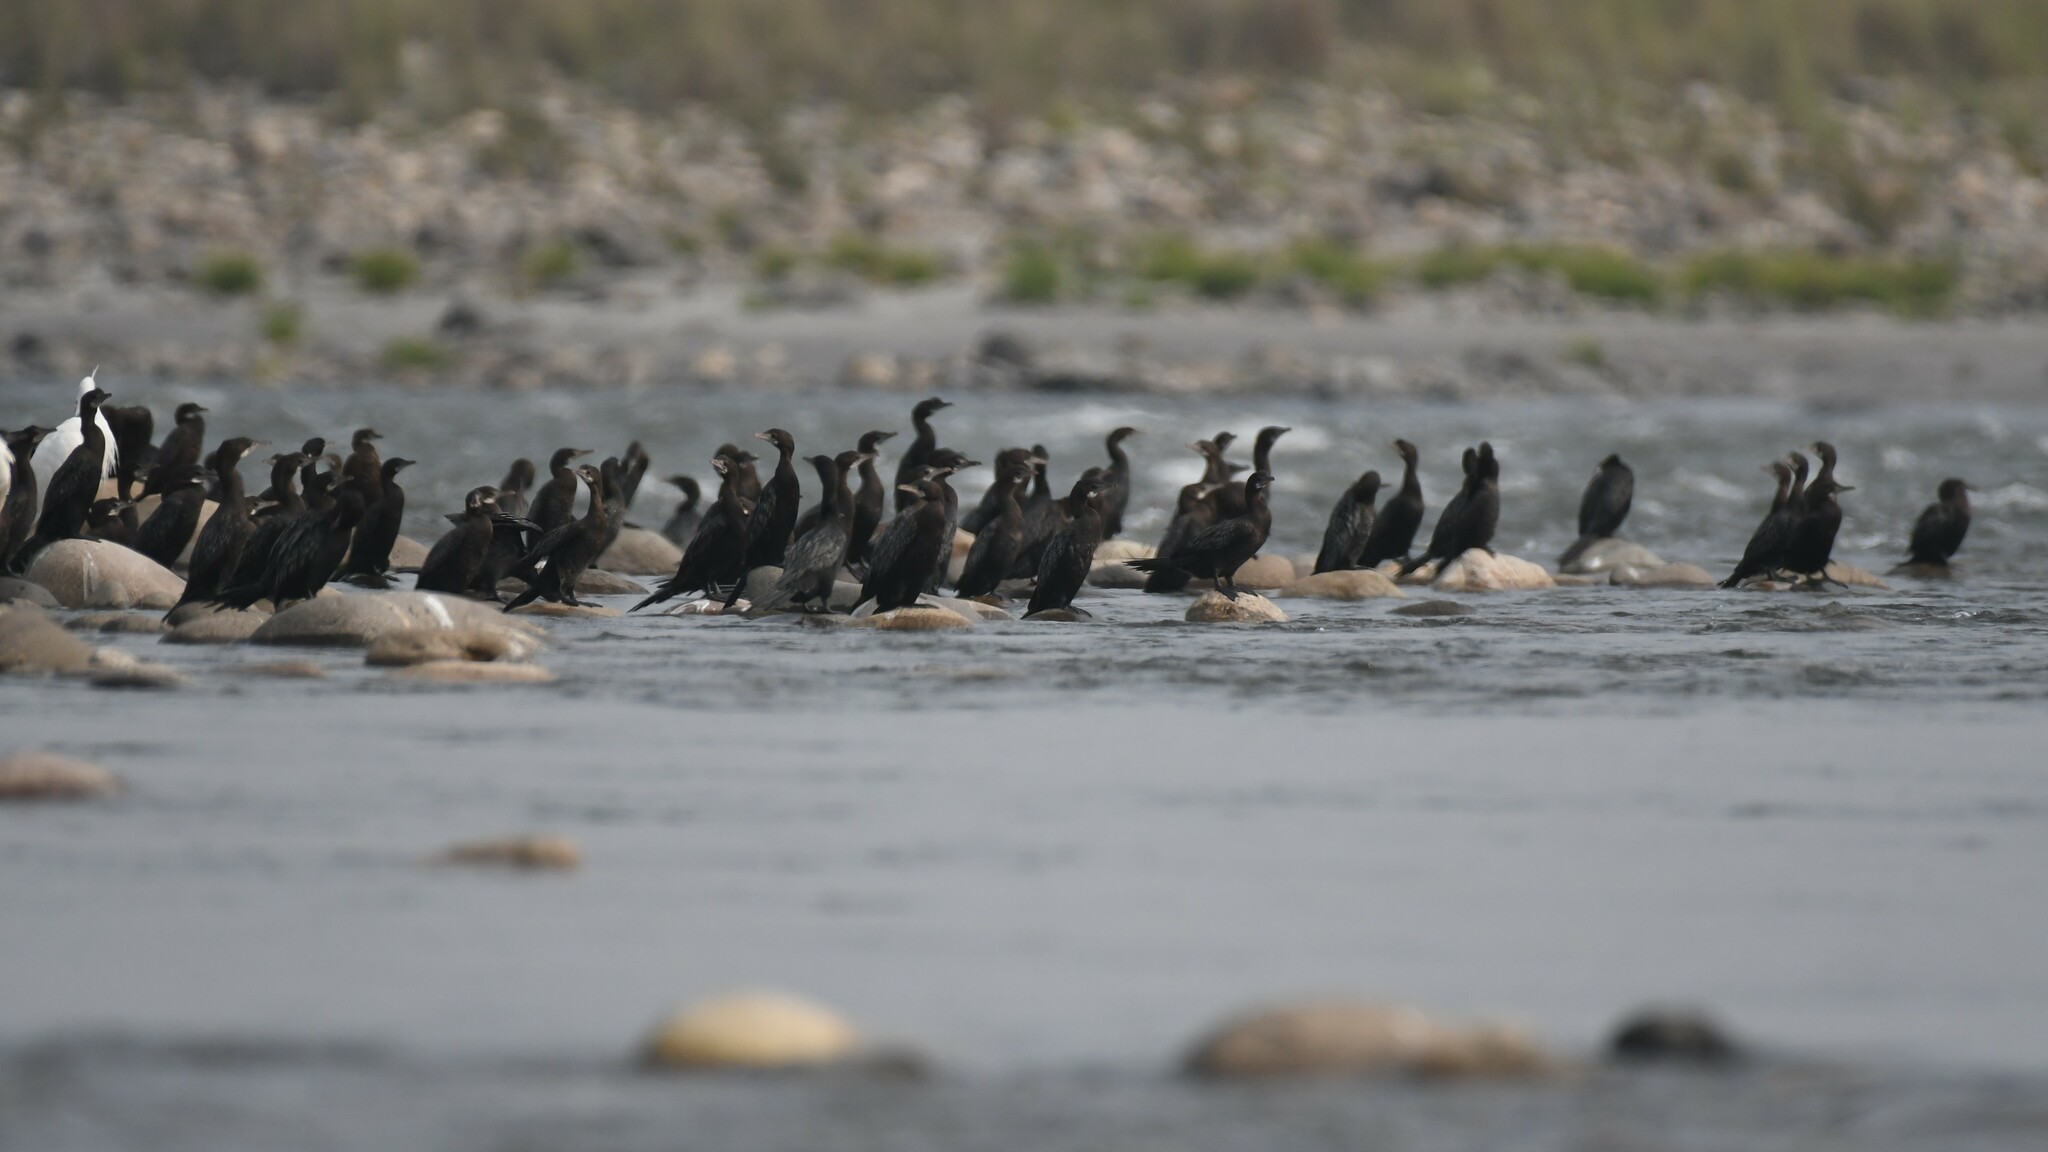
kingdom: Animalia
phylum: Chordata
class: Aves
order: Suliformes
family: Phalacrocoracidae
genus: Microcarbo
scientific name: Microcarbo niger
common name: Little cormorant
